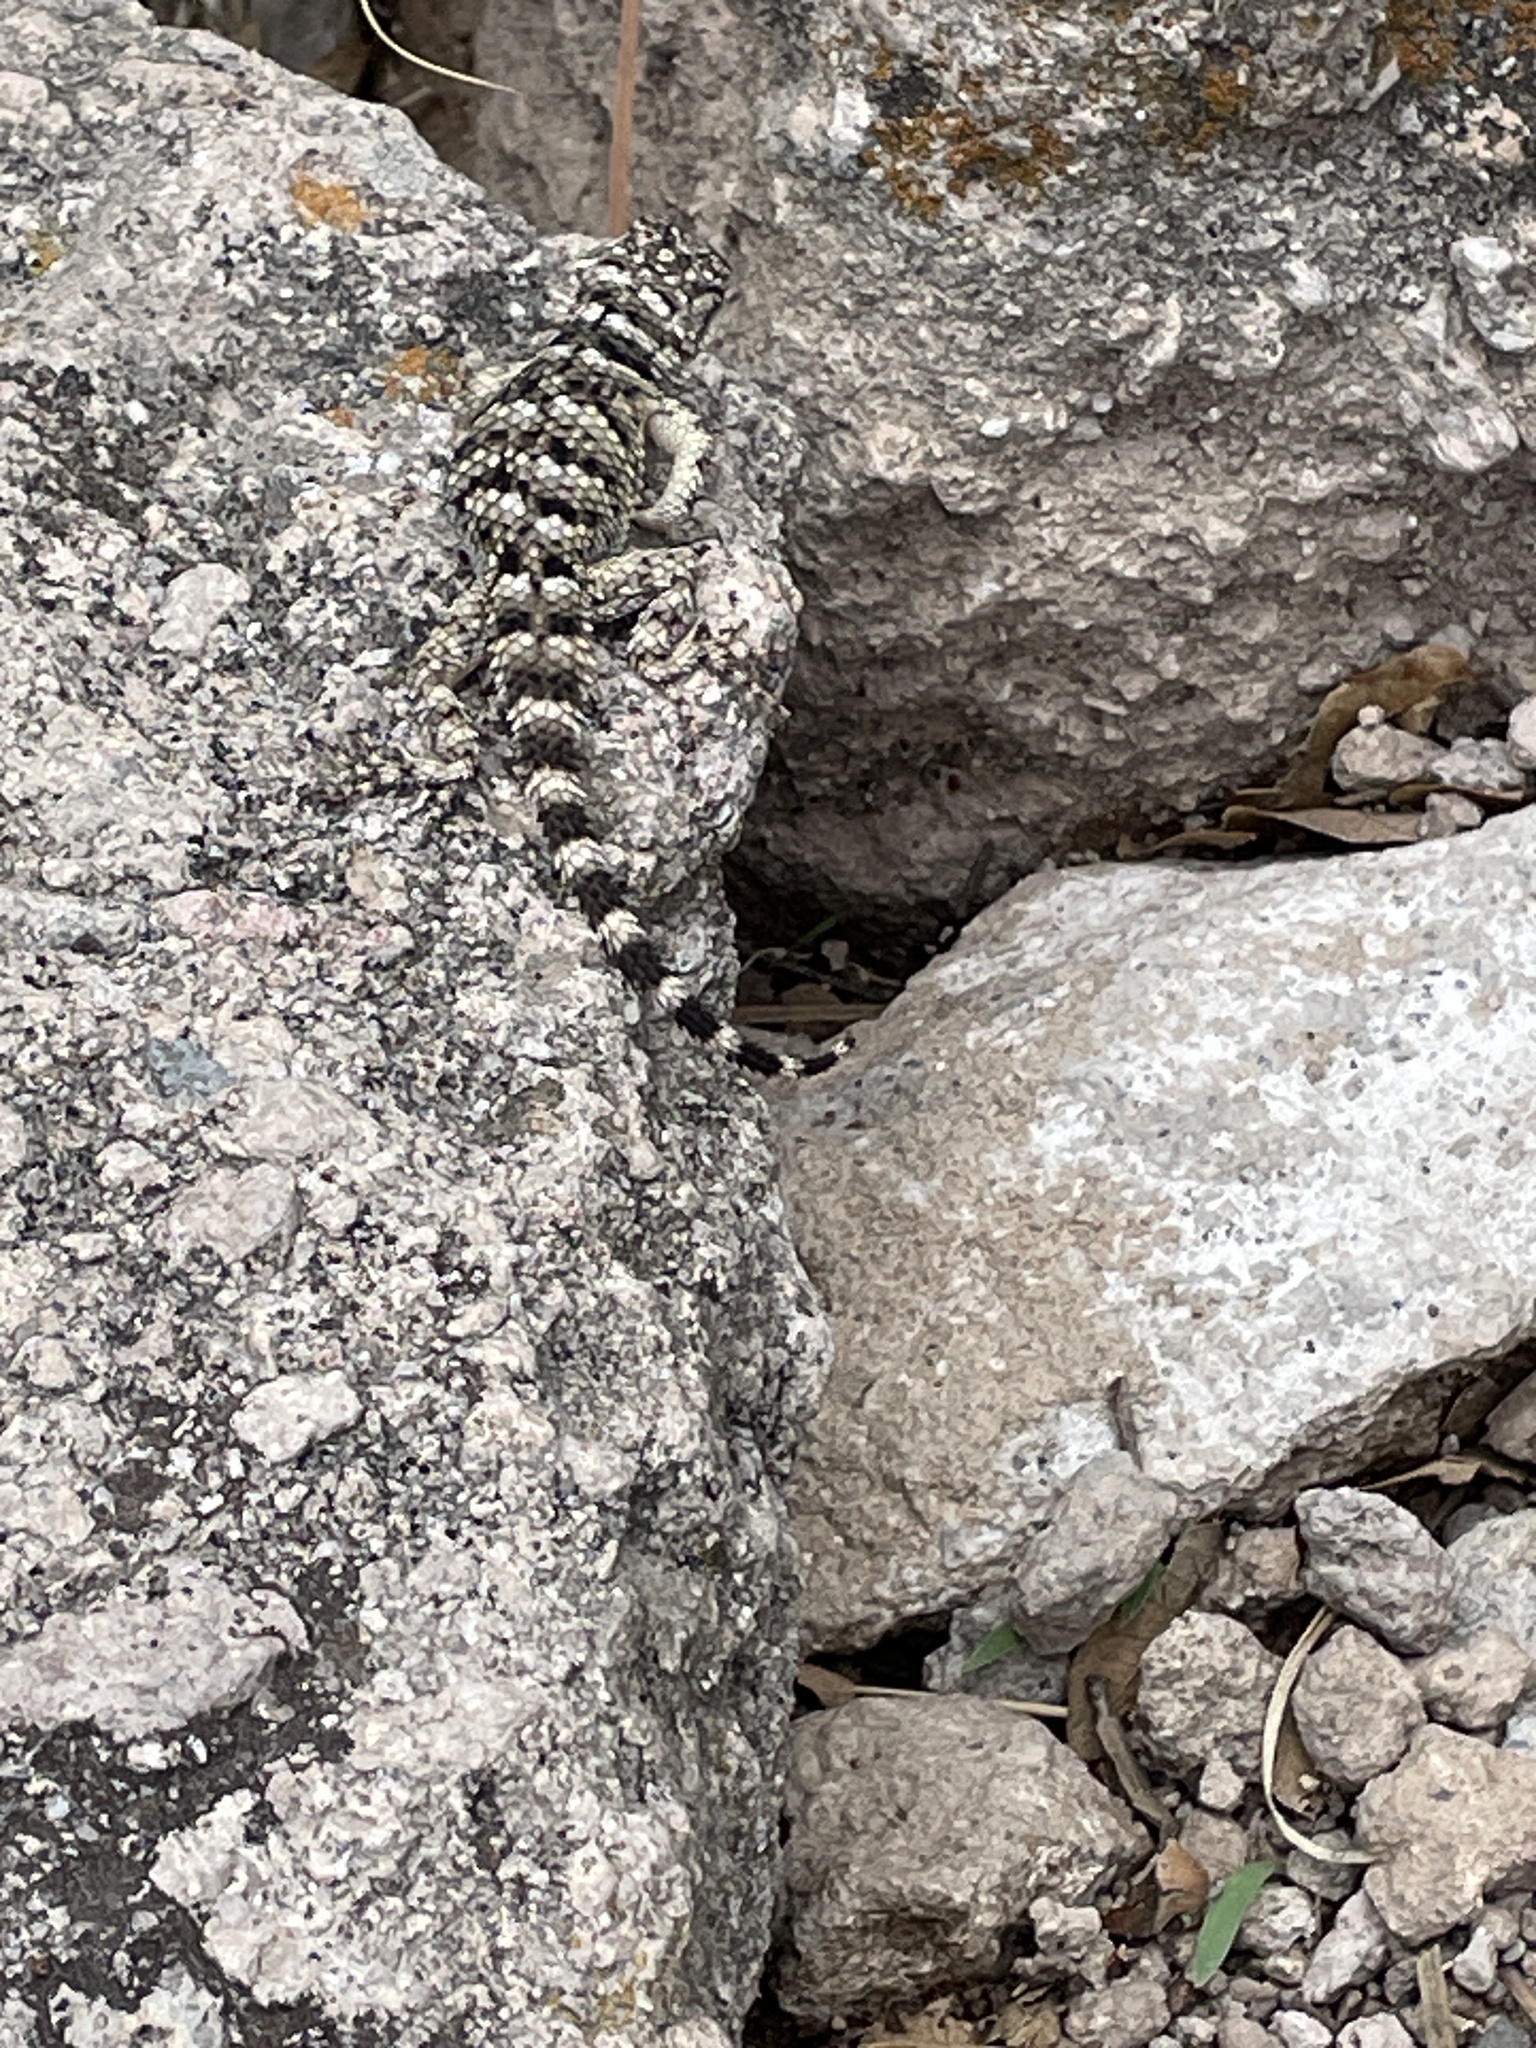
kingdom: Animalia
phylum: Chordata
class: Squamata
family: Phrynosomatidae
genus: Sceloporus
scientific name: Sceloporus poinsettii
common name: Crevice spiny lizard
